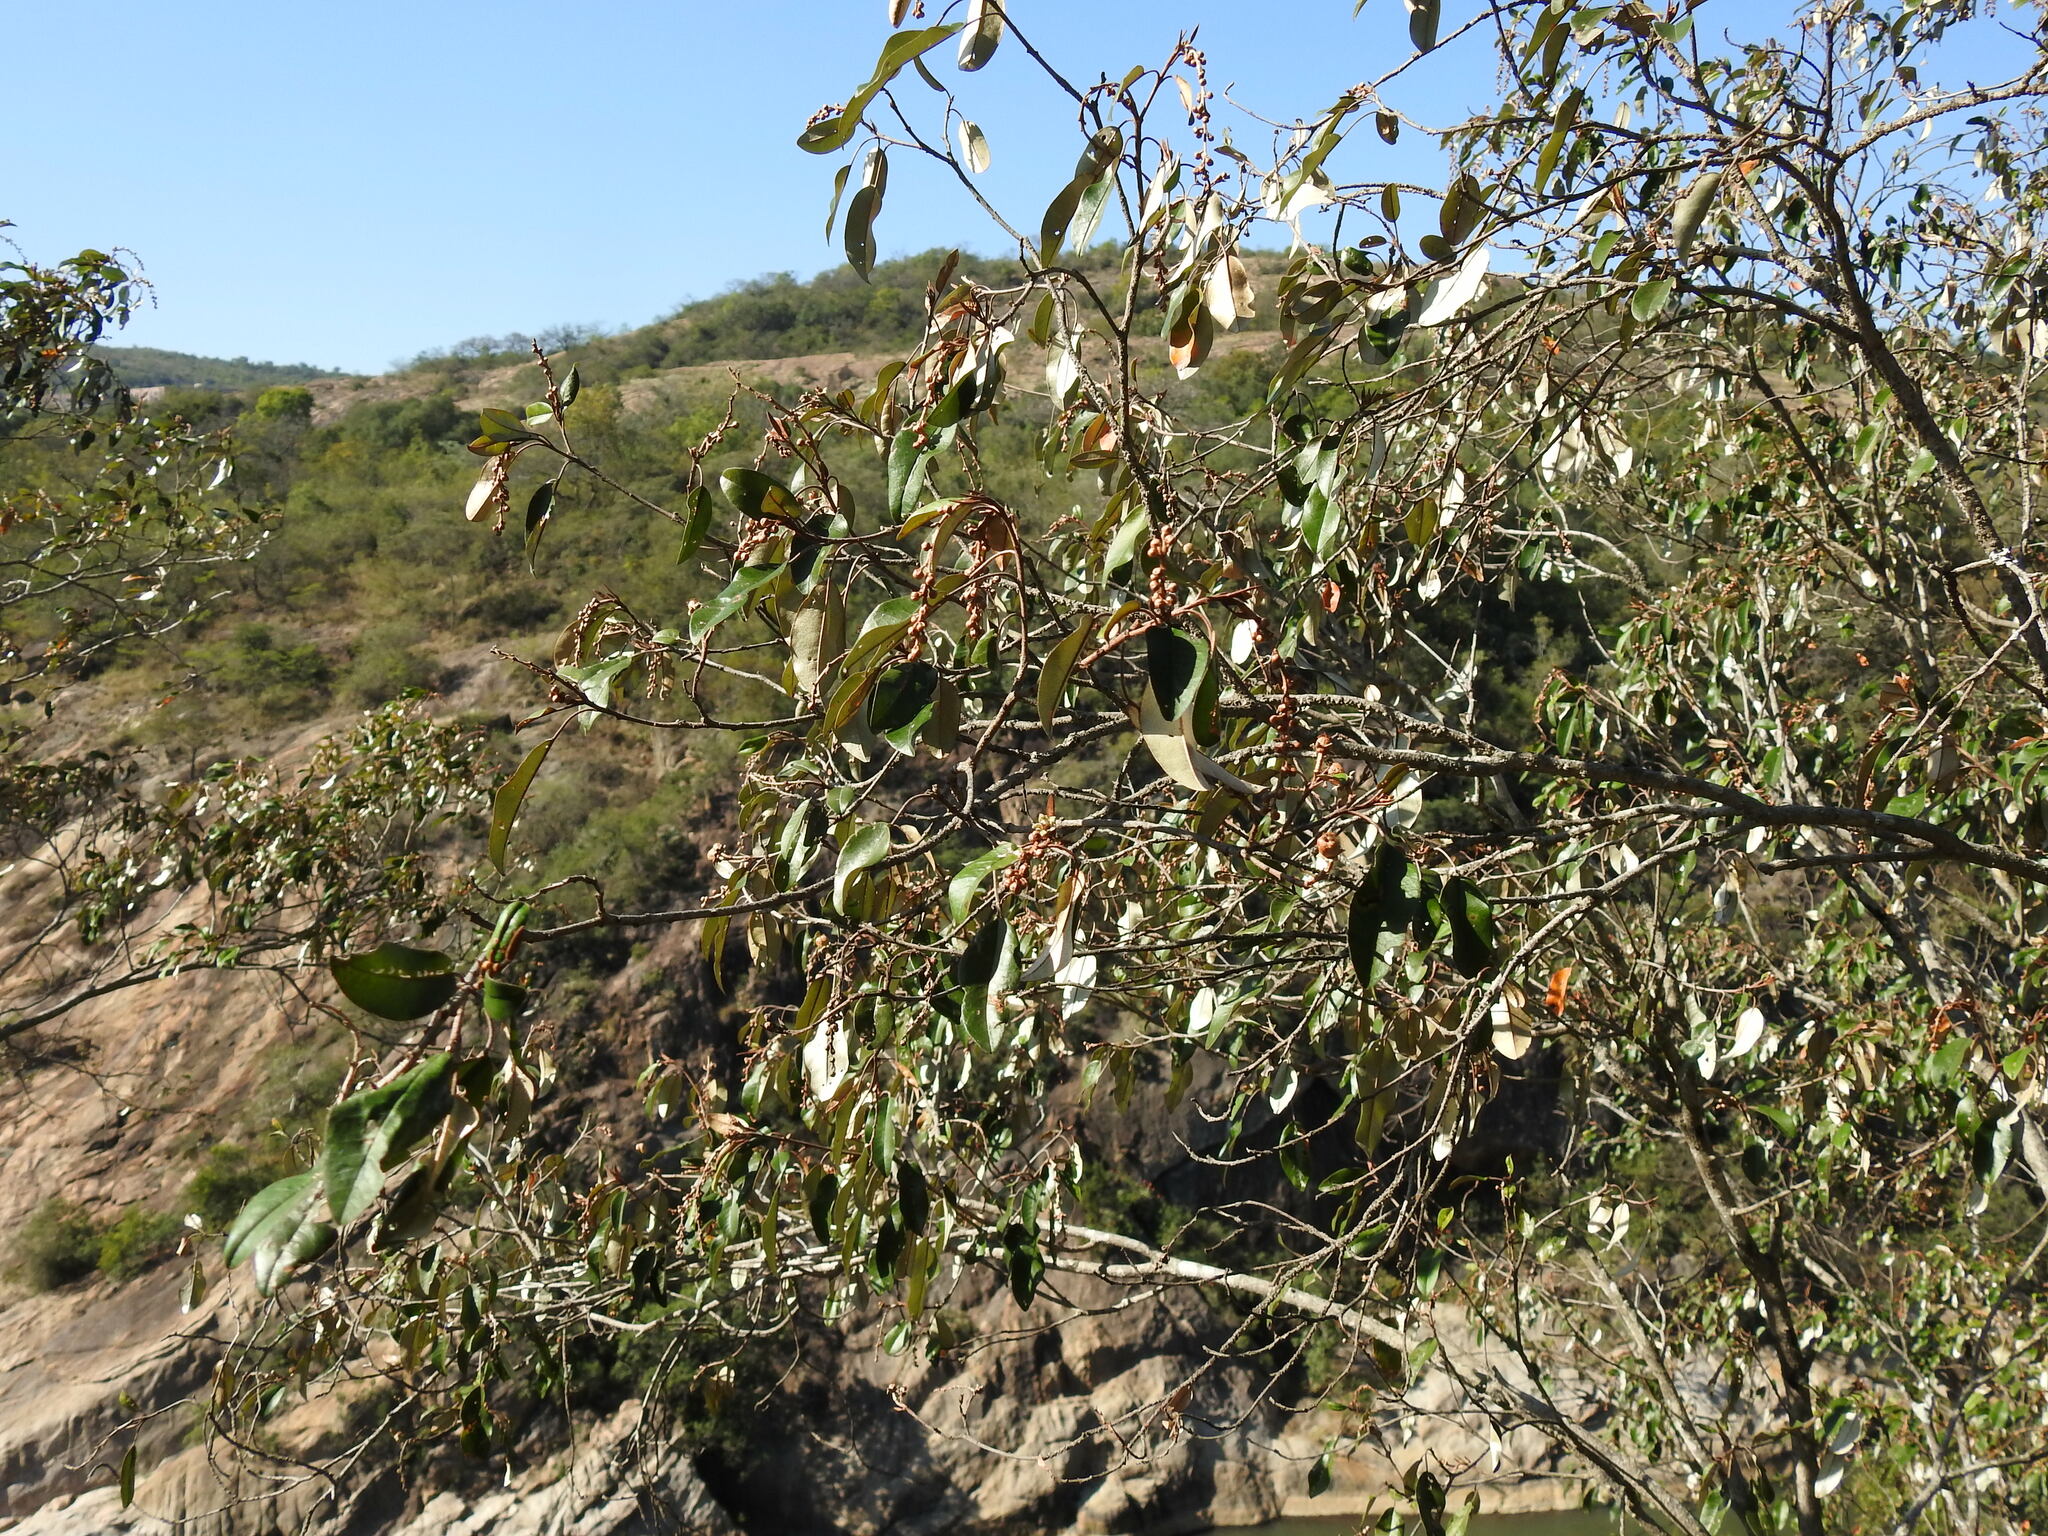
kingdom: Plantae
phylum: Tracheophyta
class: Magnoliopsida
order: Malpighiales
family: Euphorbiaceae
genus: Croton
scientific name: Croton gratissimus
